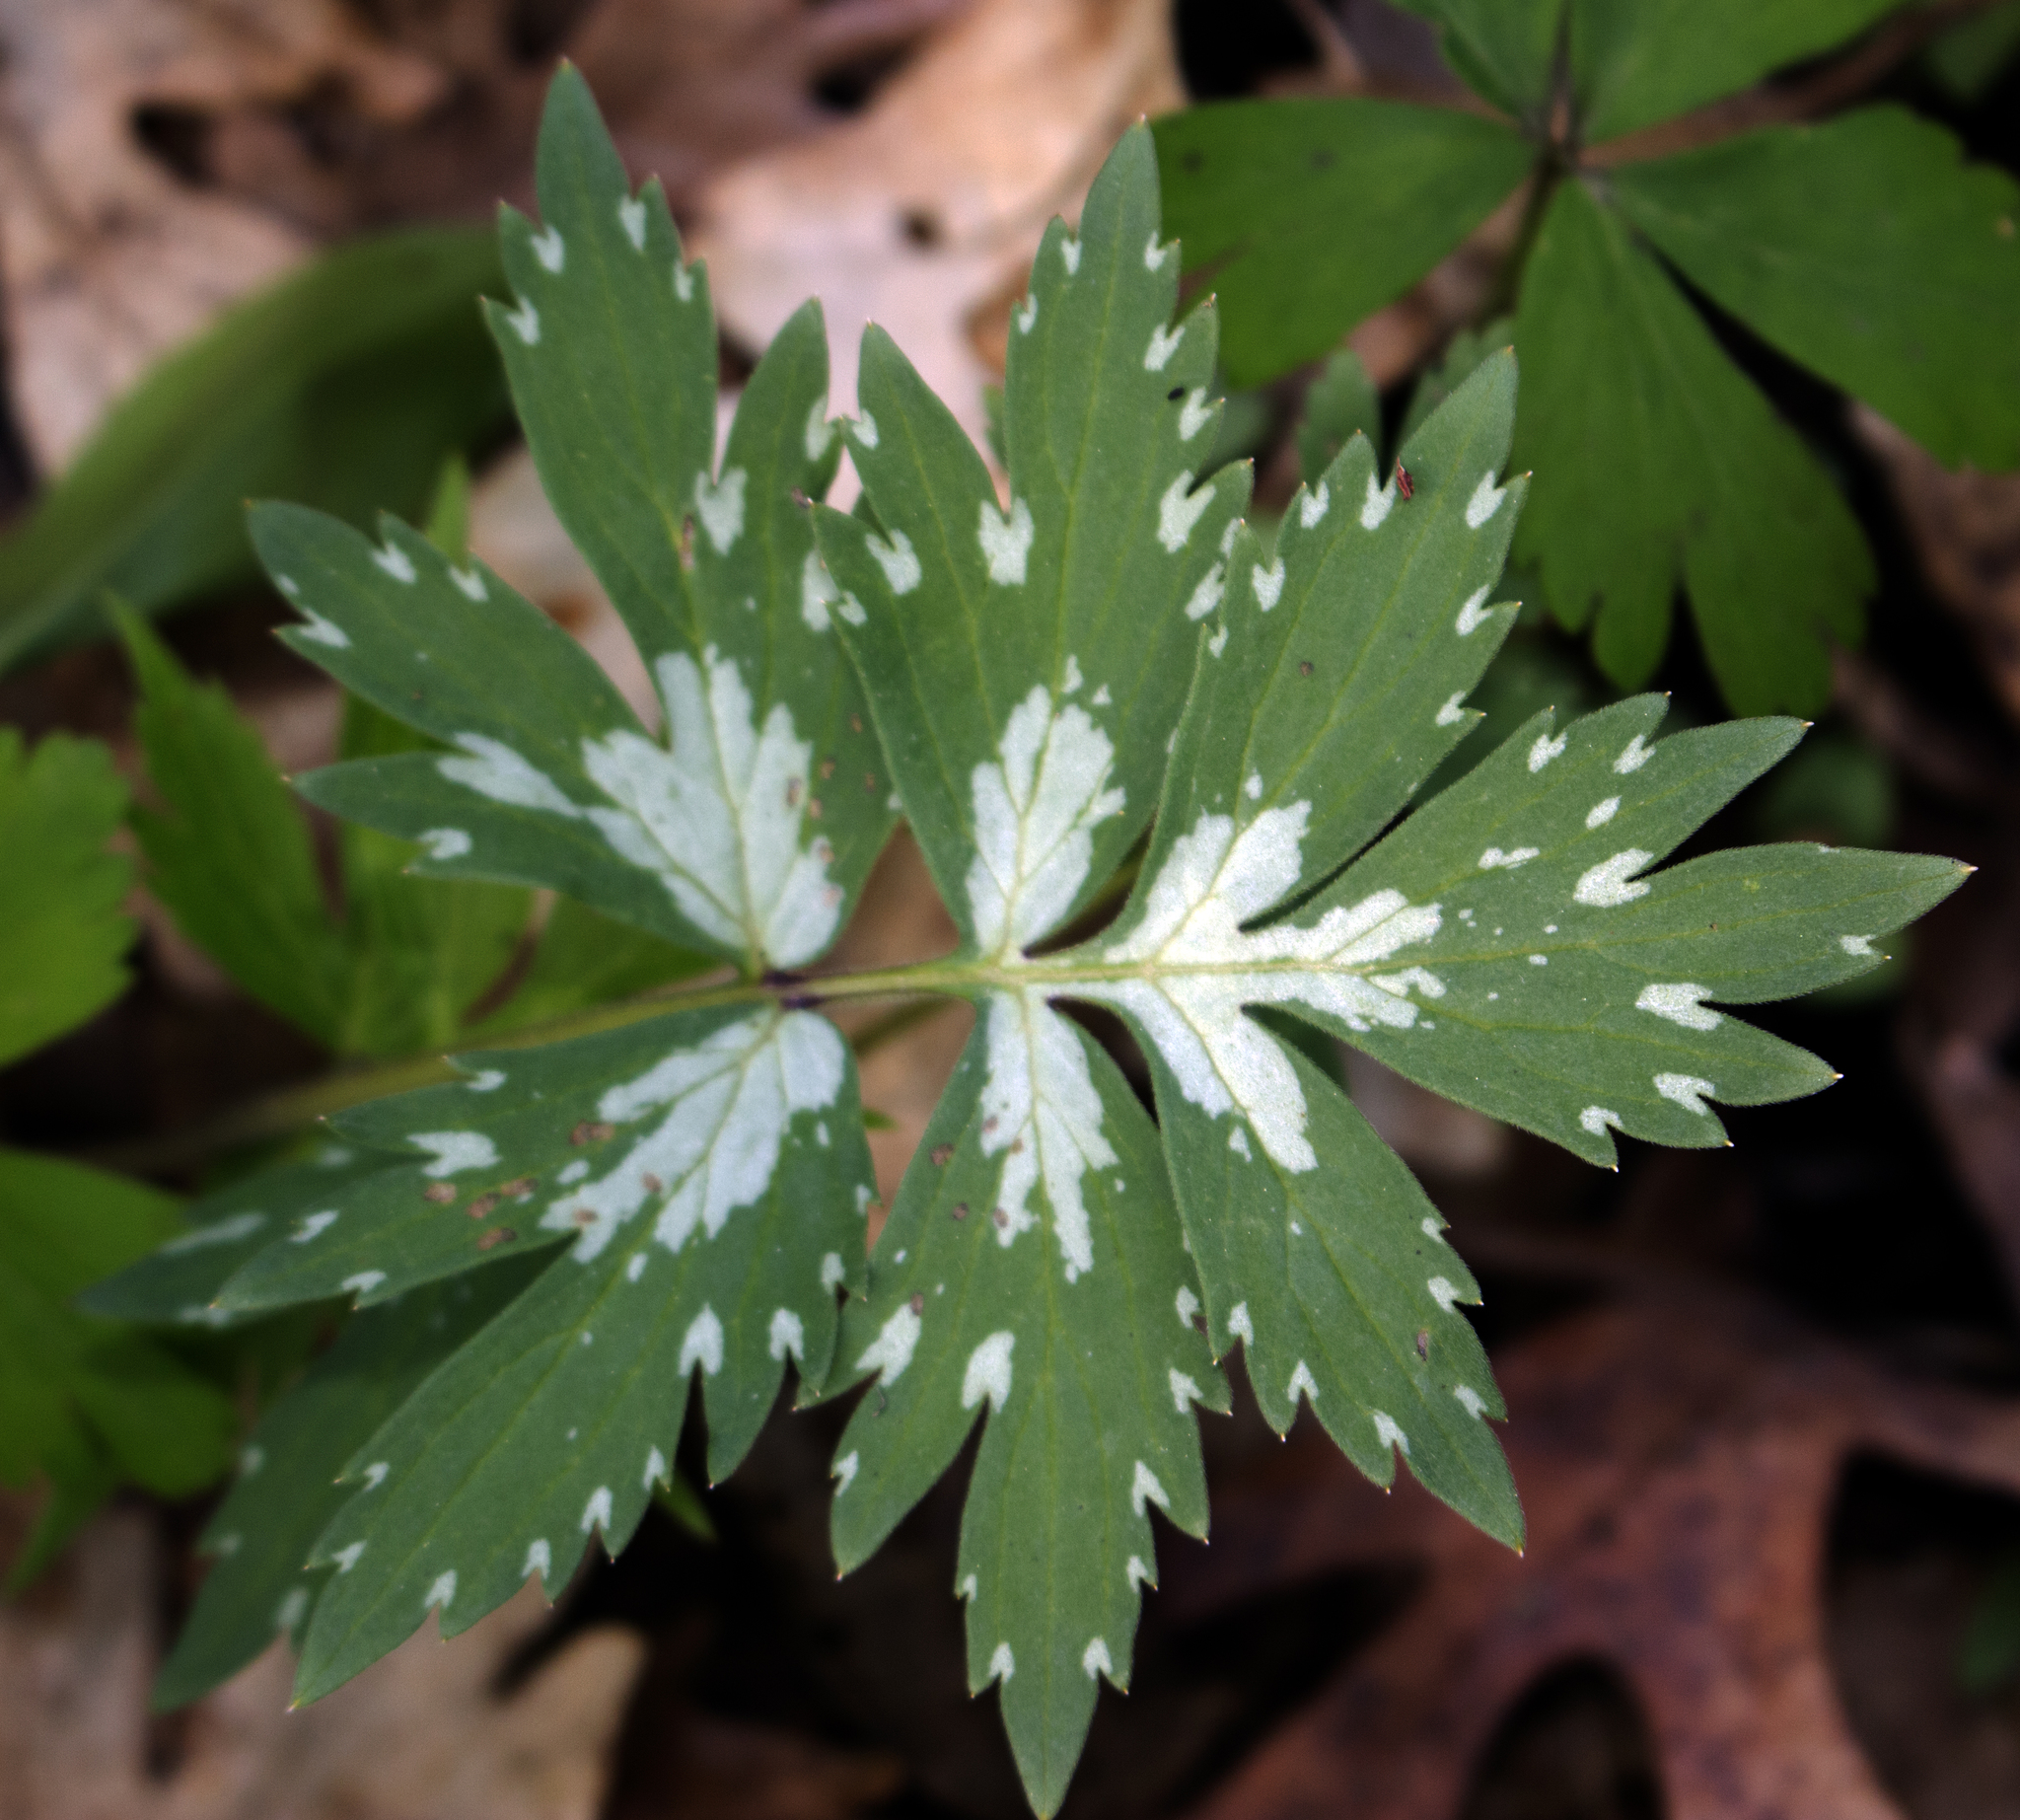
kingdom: Plantae
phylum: Tracheophyta
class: Magnoliopsida
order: Boraginales
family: Hydrophyllaceae
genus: Hydrophyllum
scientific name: Hydrophyllum virginianum
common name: Virginia waterleaf
